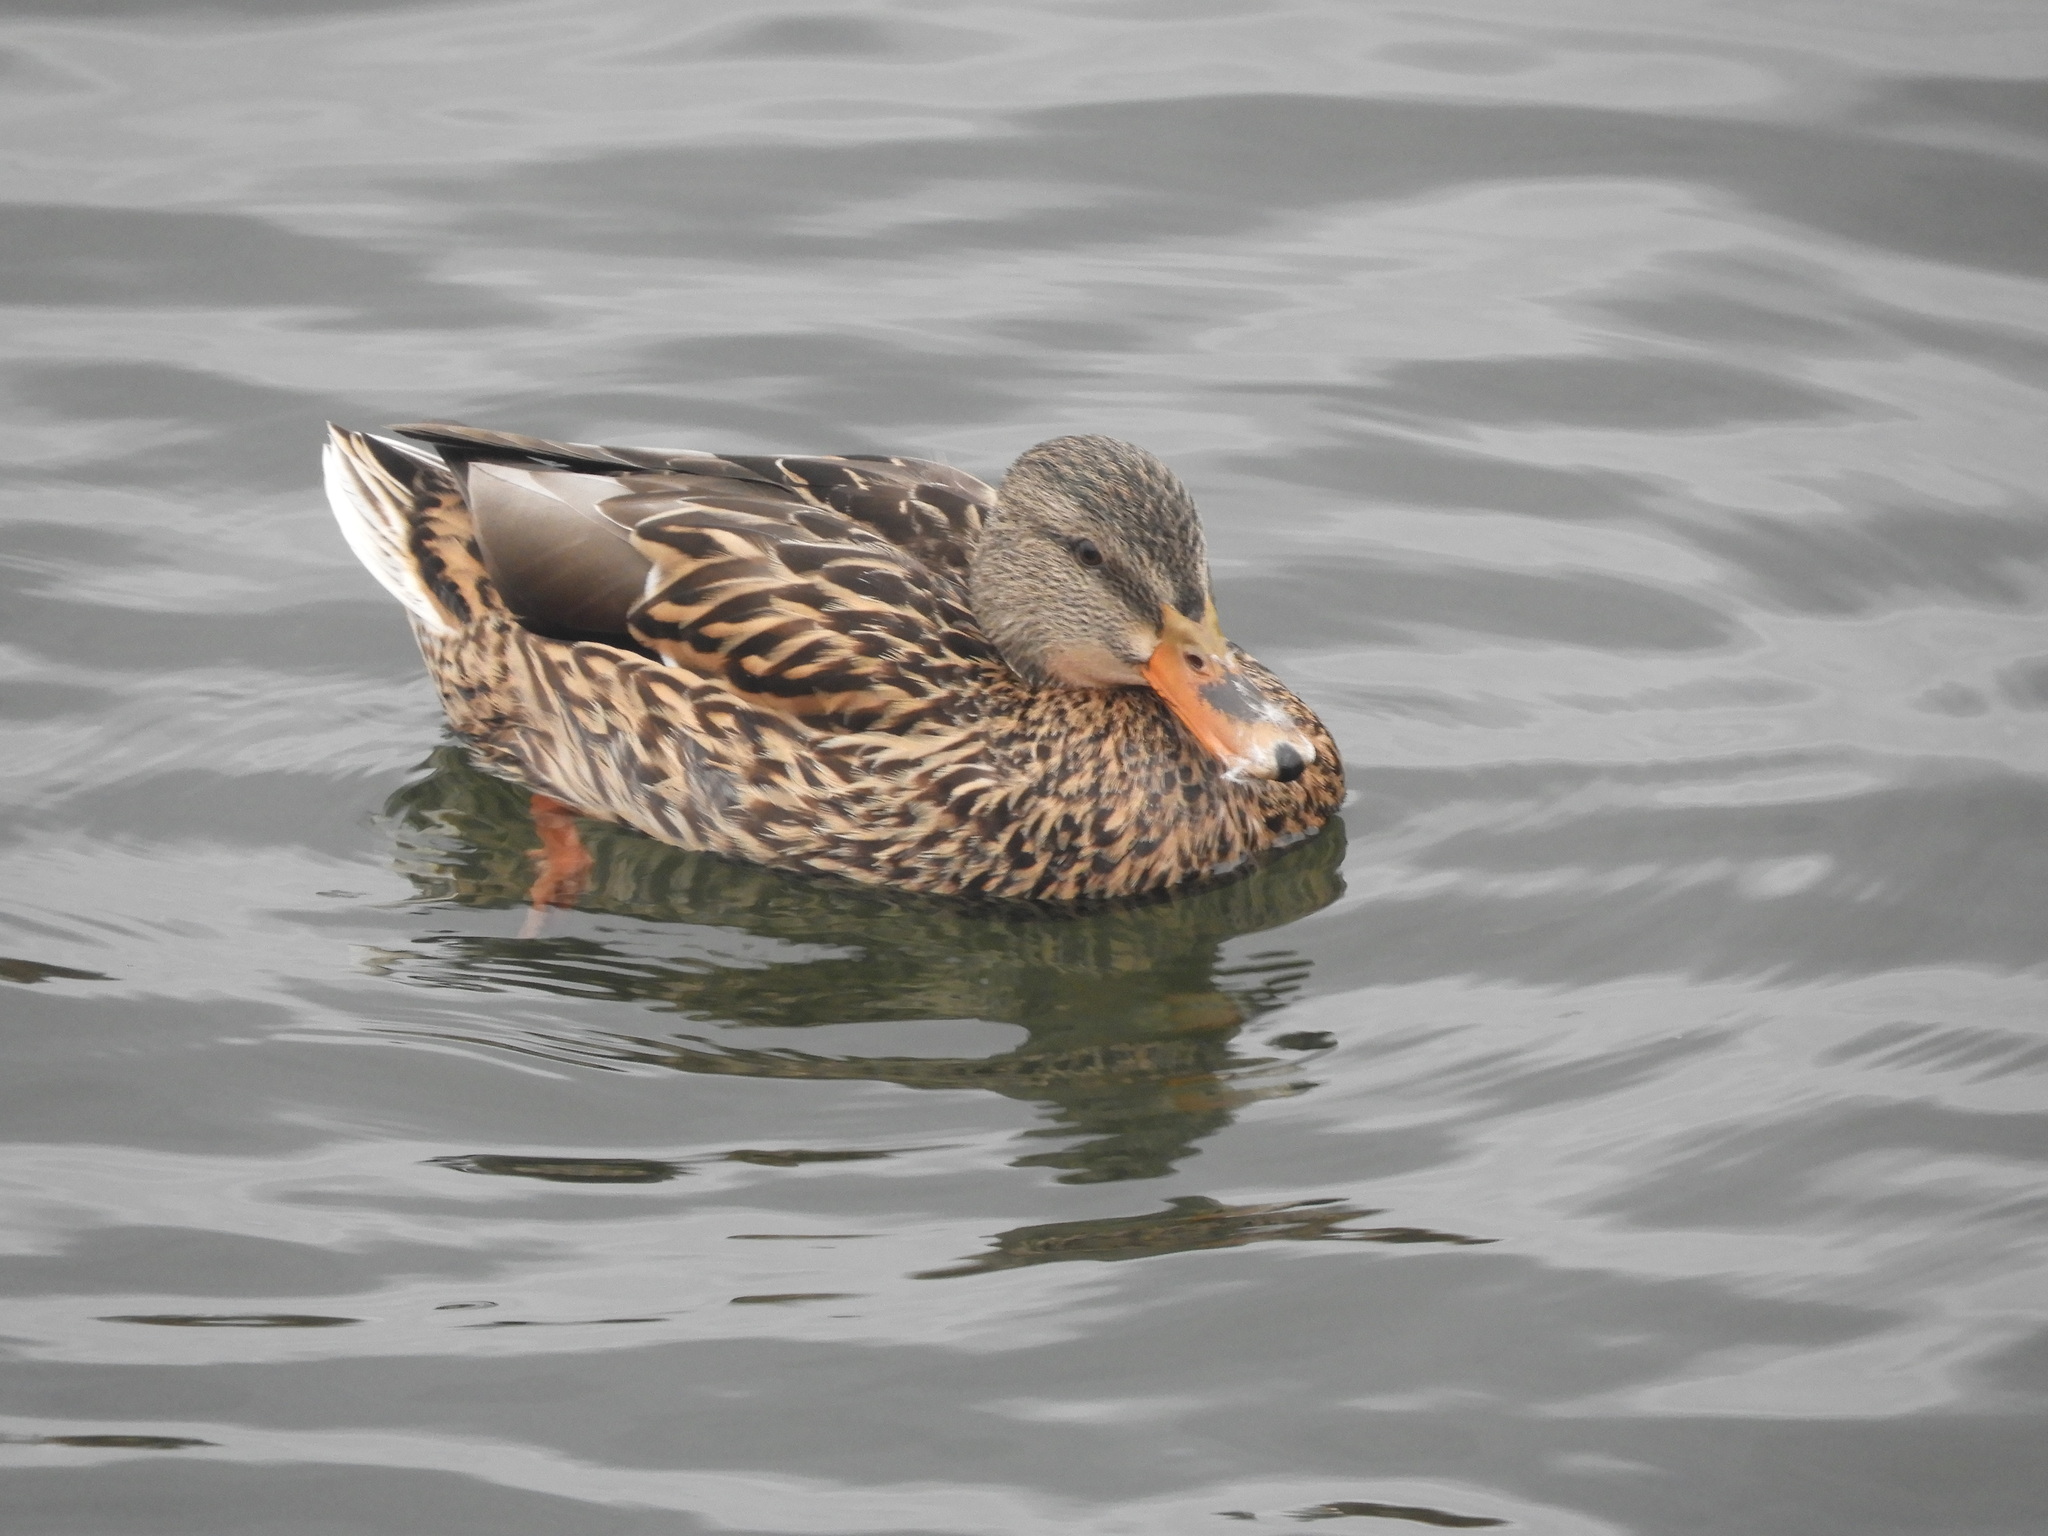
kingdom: Animalia
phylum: Chordata
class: Aves
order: Anseriformes
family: Anatidae
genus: Anas
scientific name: Anas platyrhynchos
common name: Mallard
